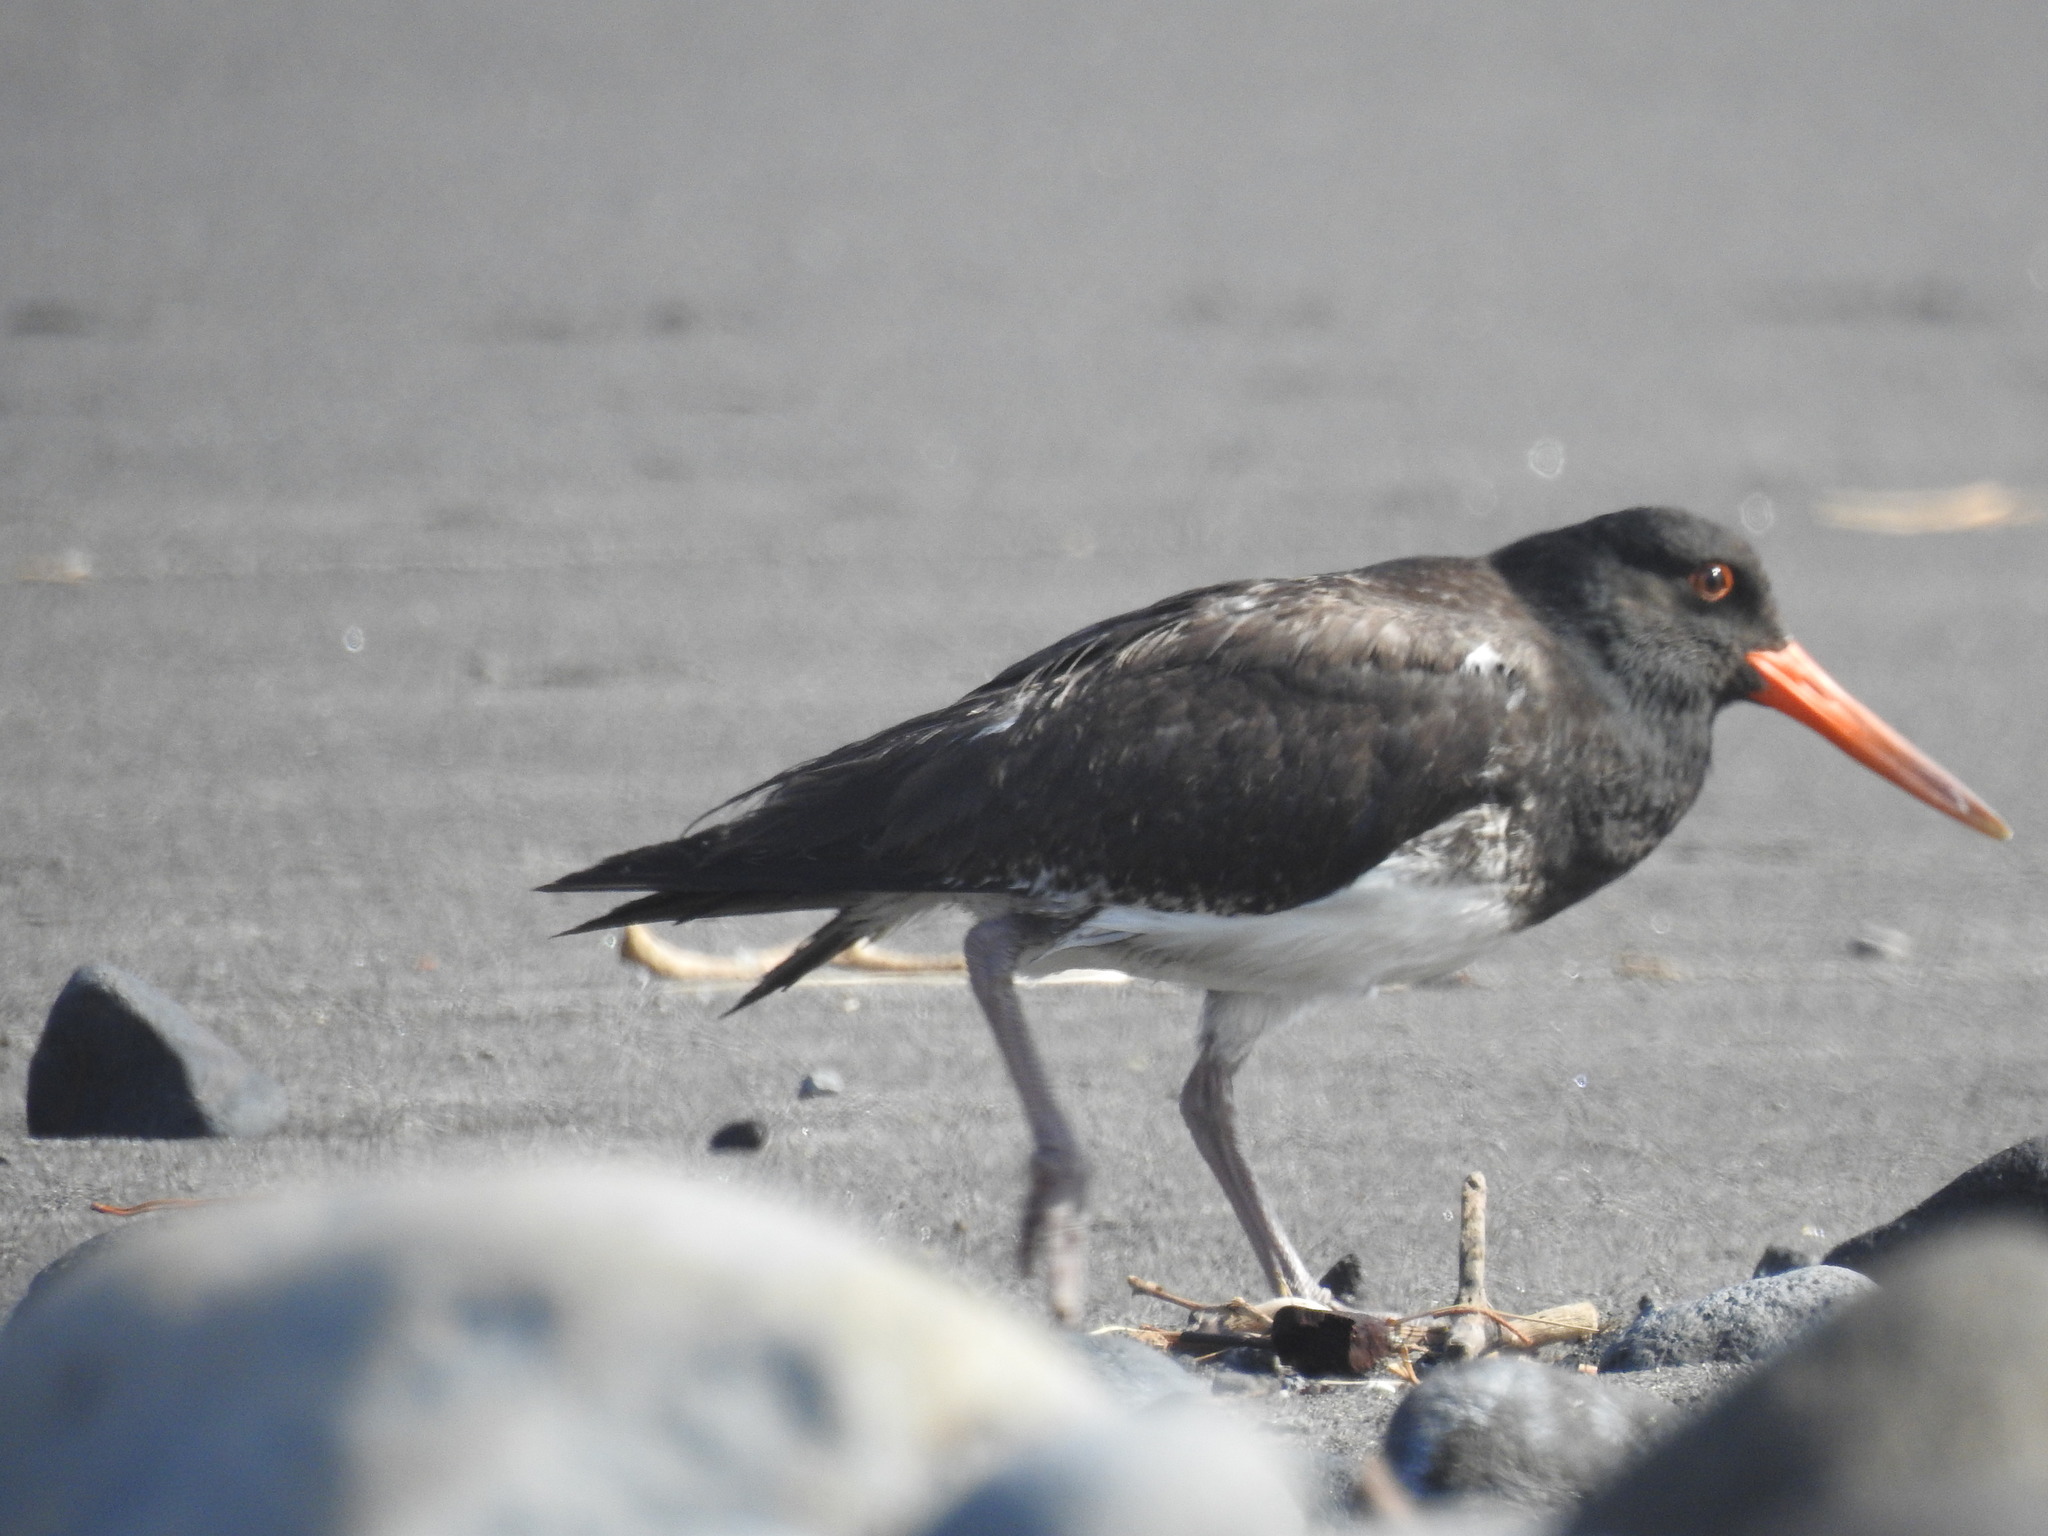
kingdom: Animalia
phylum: Chordata
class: Aves
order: Charadriiformes
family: Haematopodidae
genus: Haematopus
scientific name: Haematopus unicolor
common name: Variable oystercatcher
